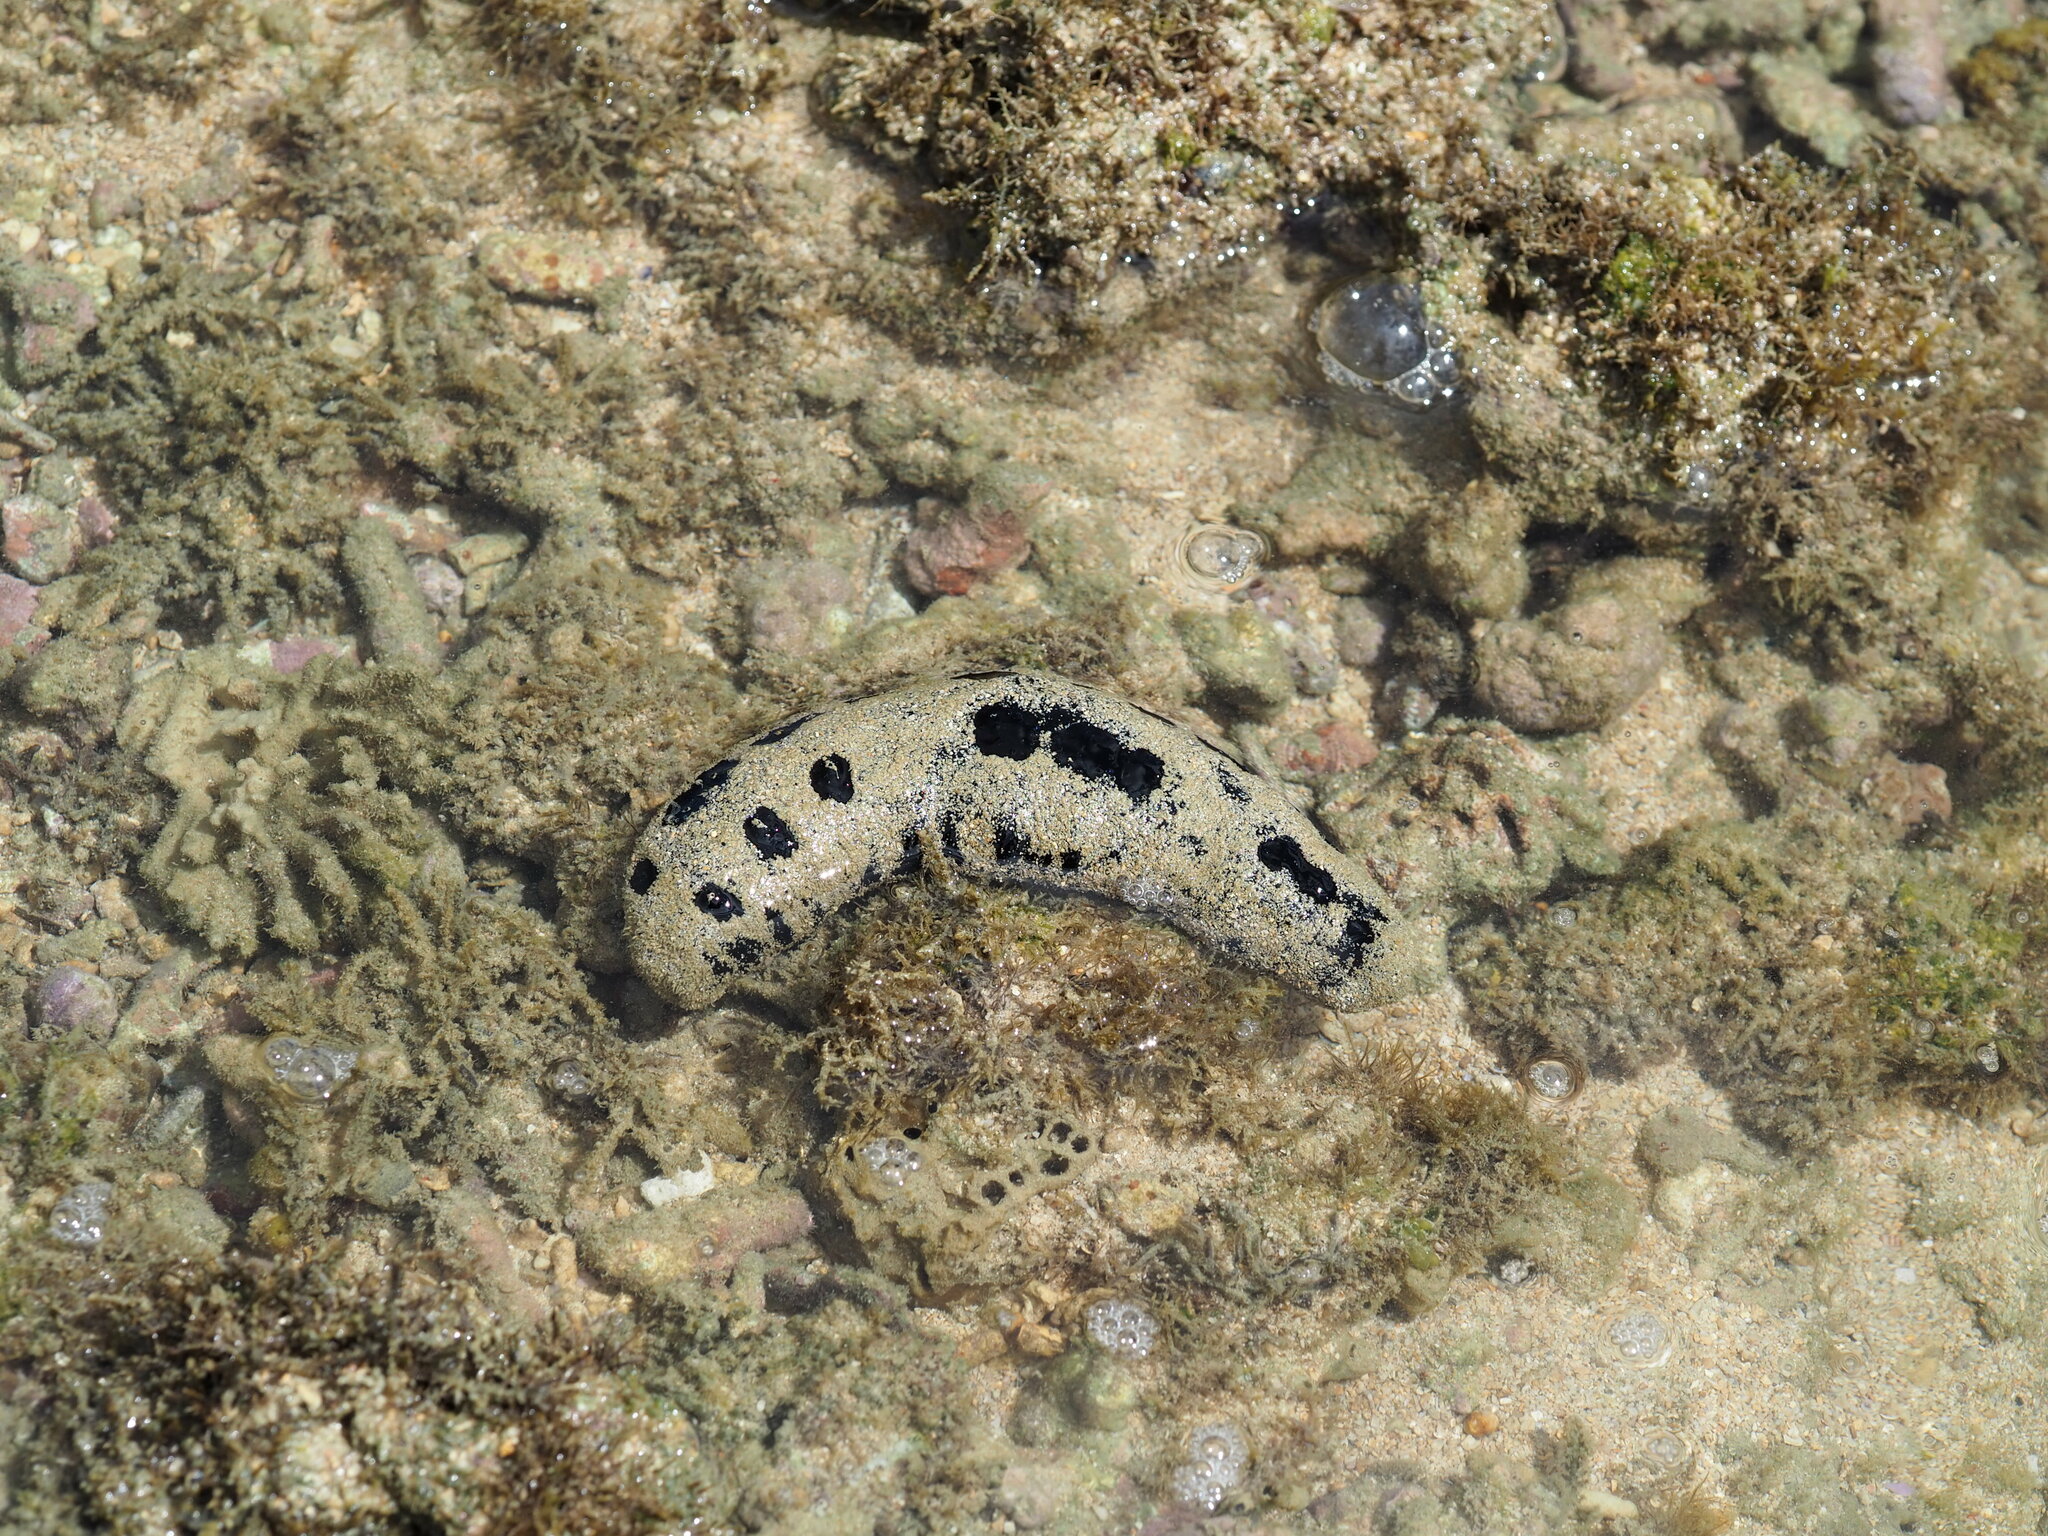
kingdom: Animalia
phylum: Echinodermata
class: Holothuroidea
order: Holothuriida
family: Holothuriidae
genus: Holothuria
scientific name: Holothuria atra
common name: Lollyfish
